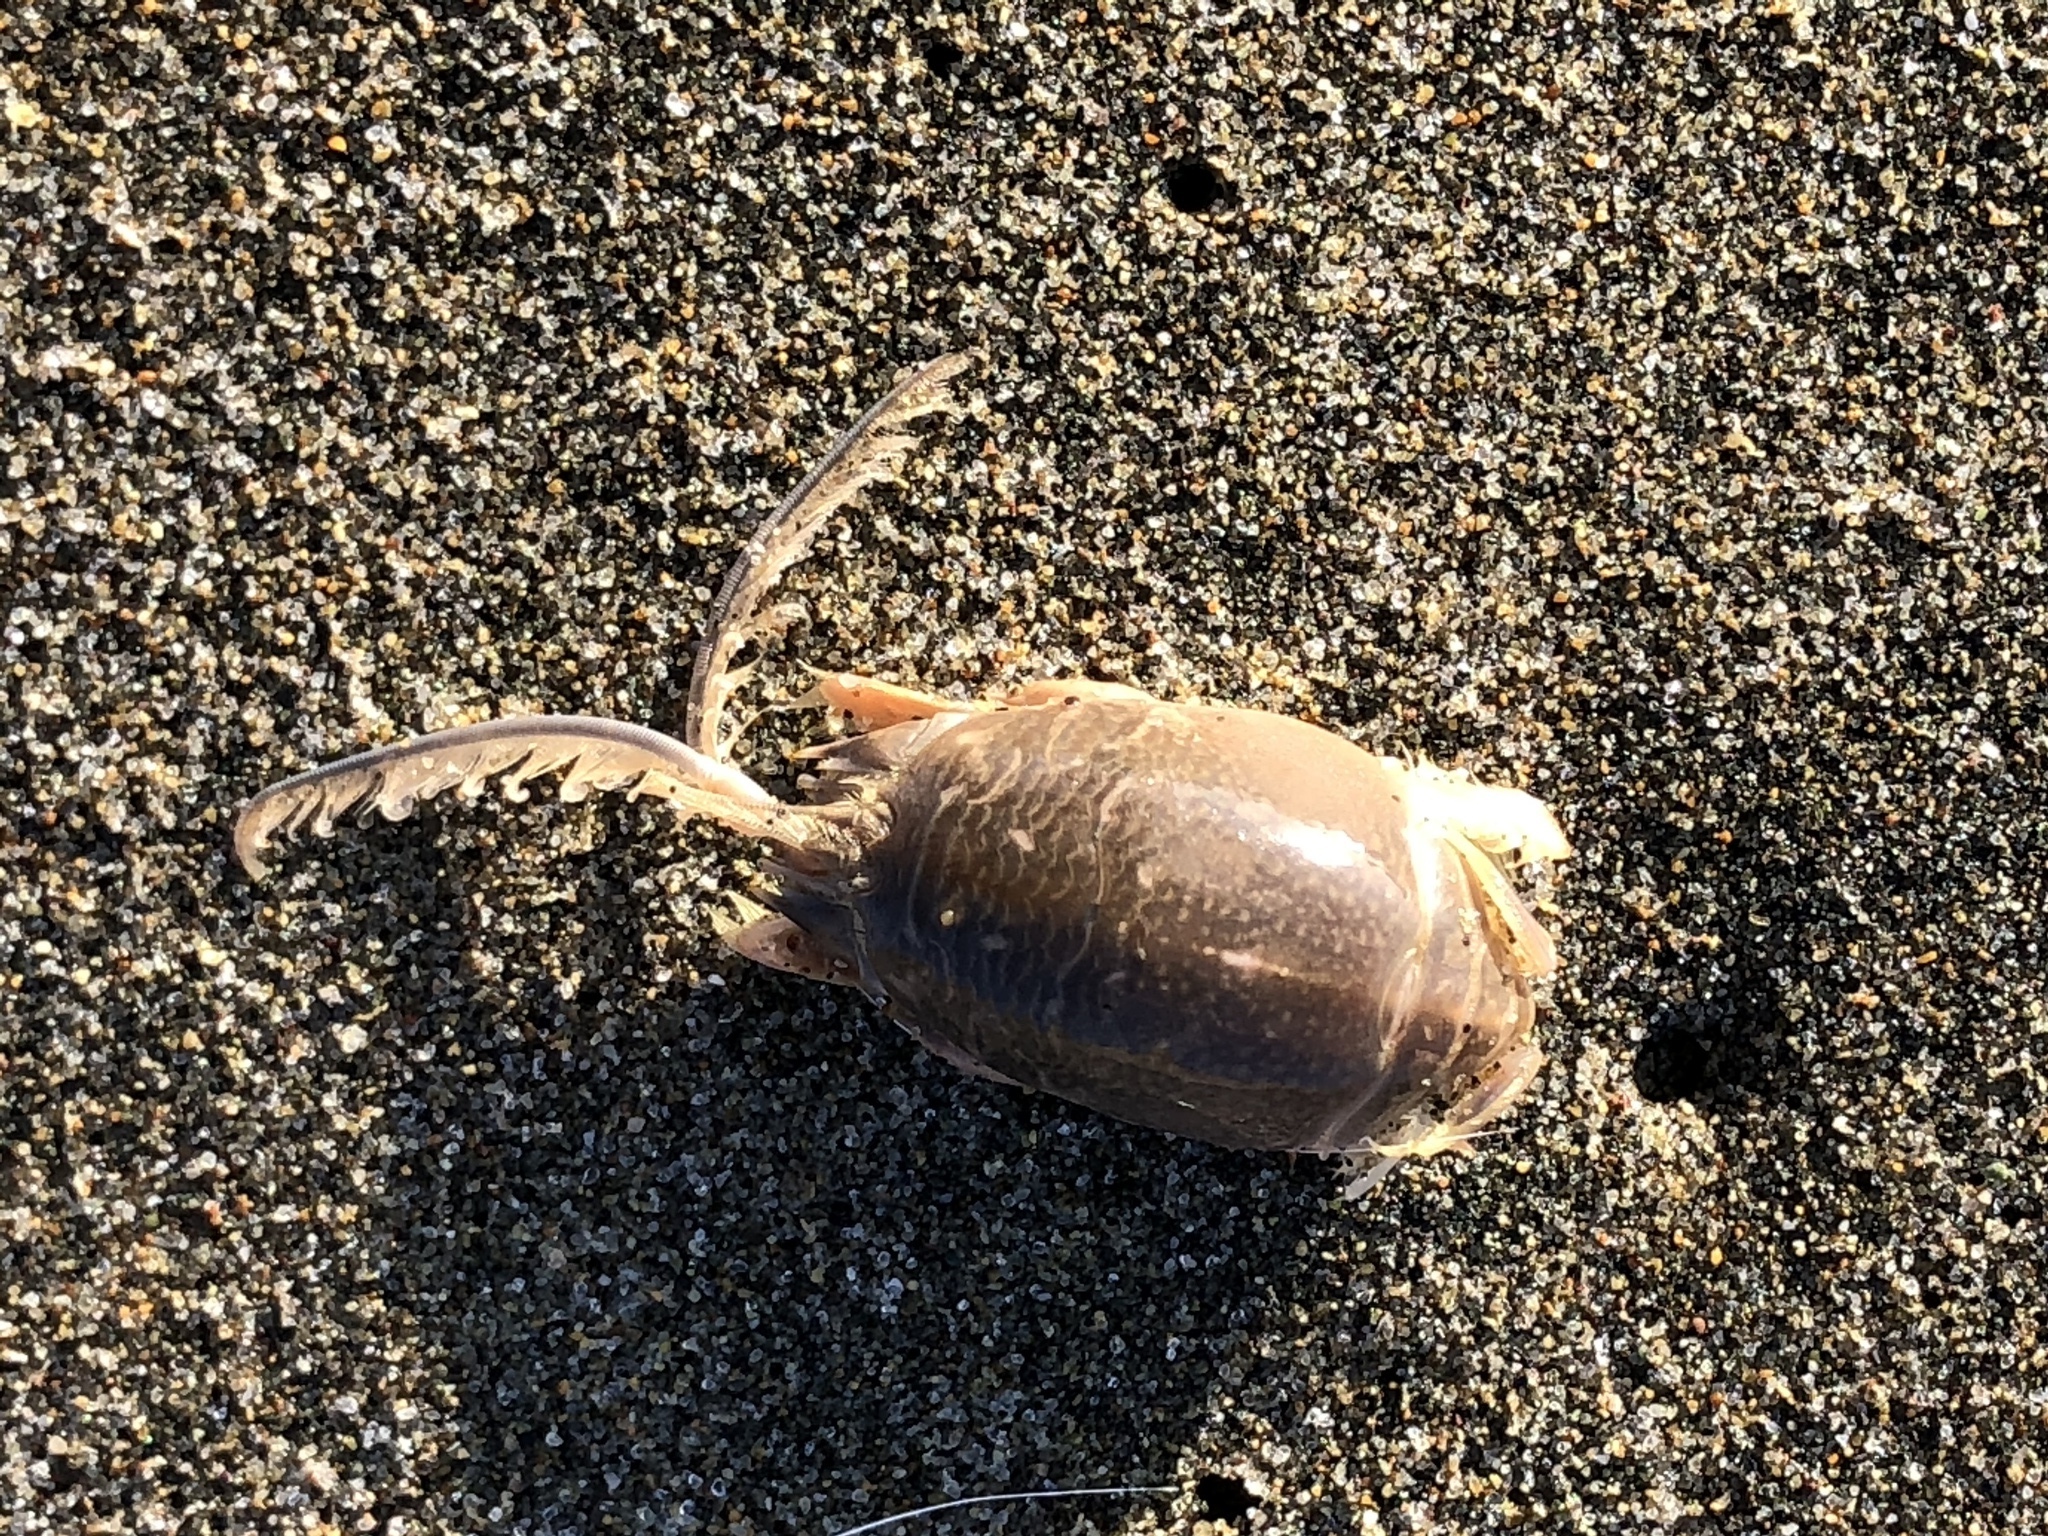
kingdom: Animalia
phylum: Arthropoda
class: Malacostraca
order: Decapoda
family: Hippidae
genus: Emerita
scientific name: Emerita analoga
